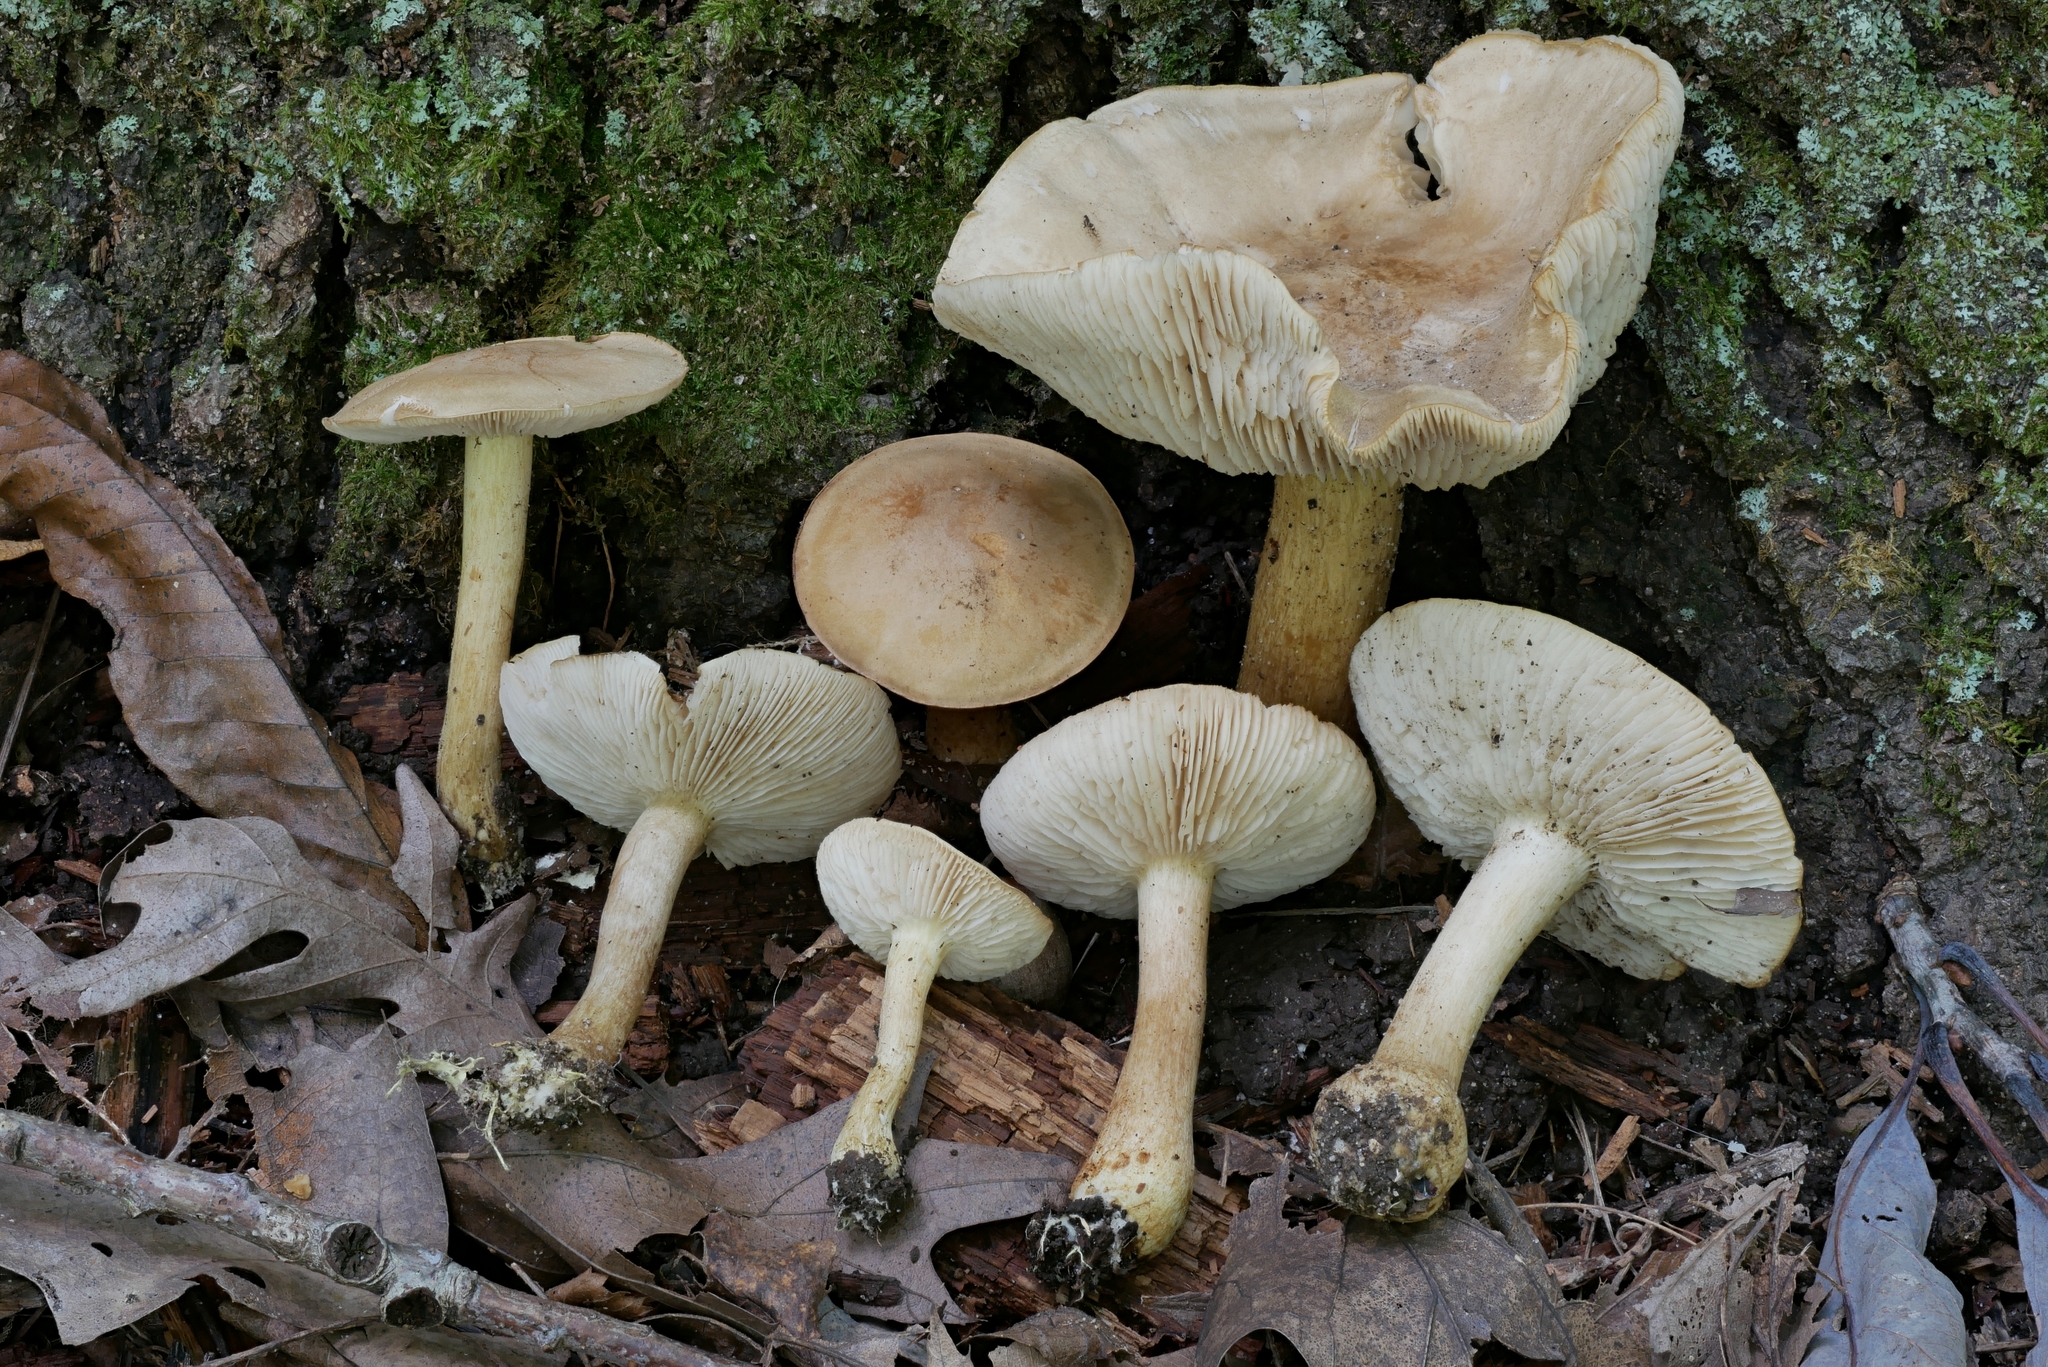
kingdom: Fungi
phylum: Basidiomycota
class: Agaricomycetes
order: Agaricales
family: Tricholomataceae
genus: Tricholoma
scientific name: Tricholoma odorum
